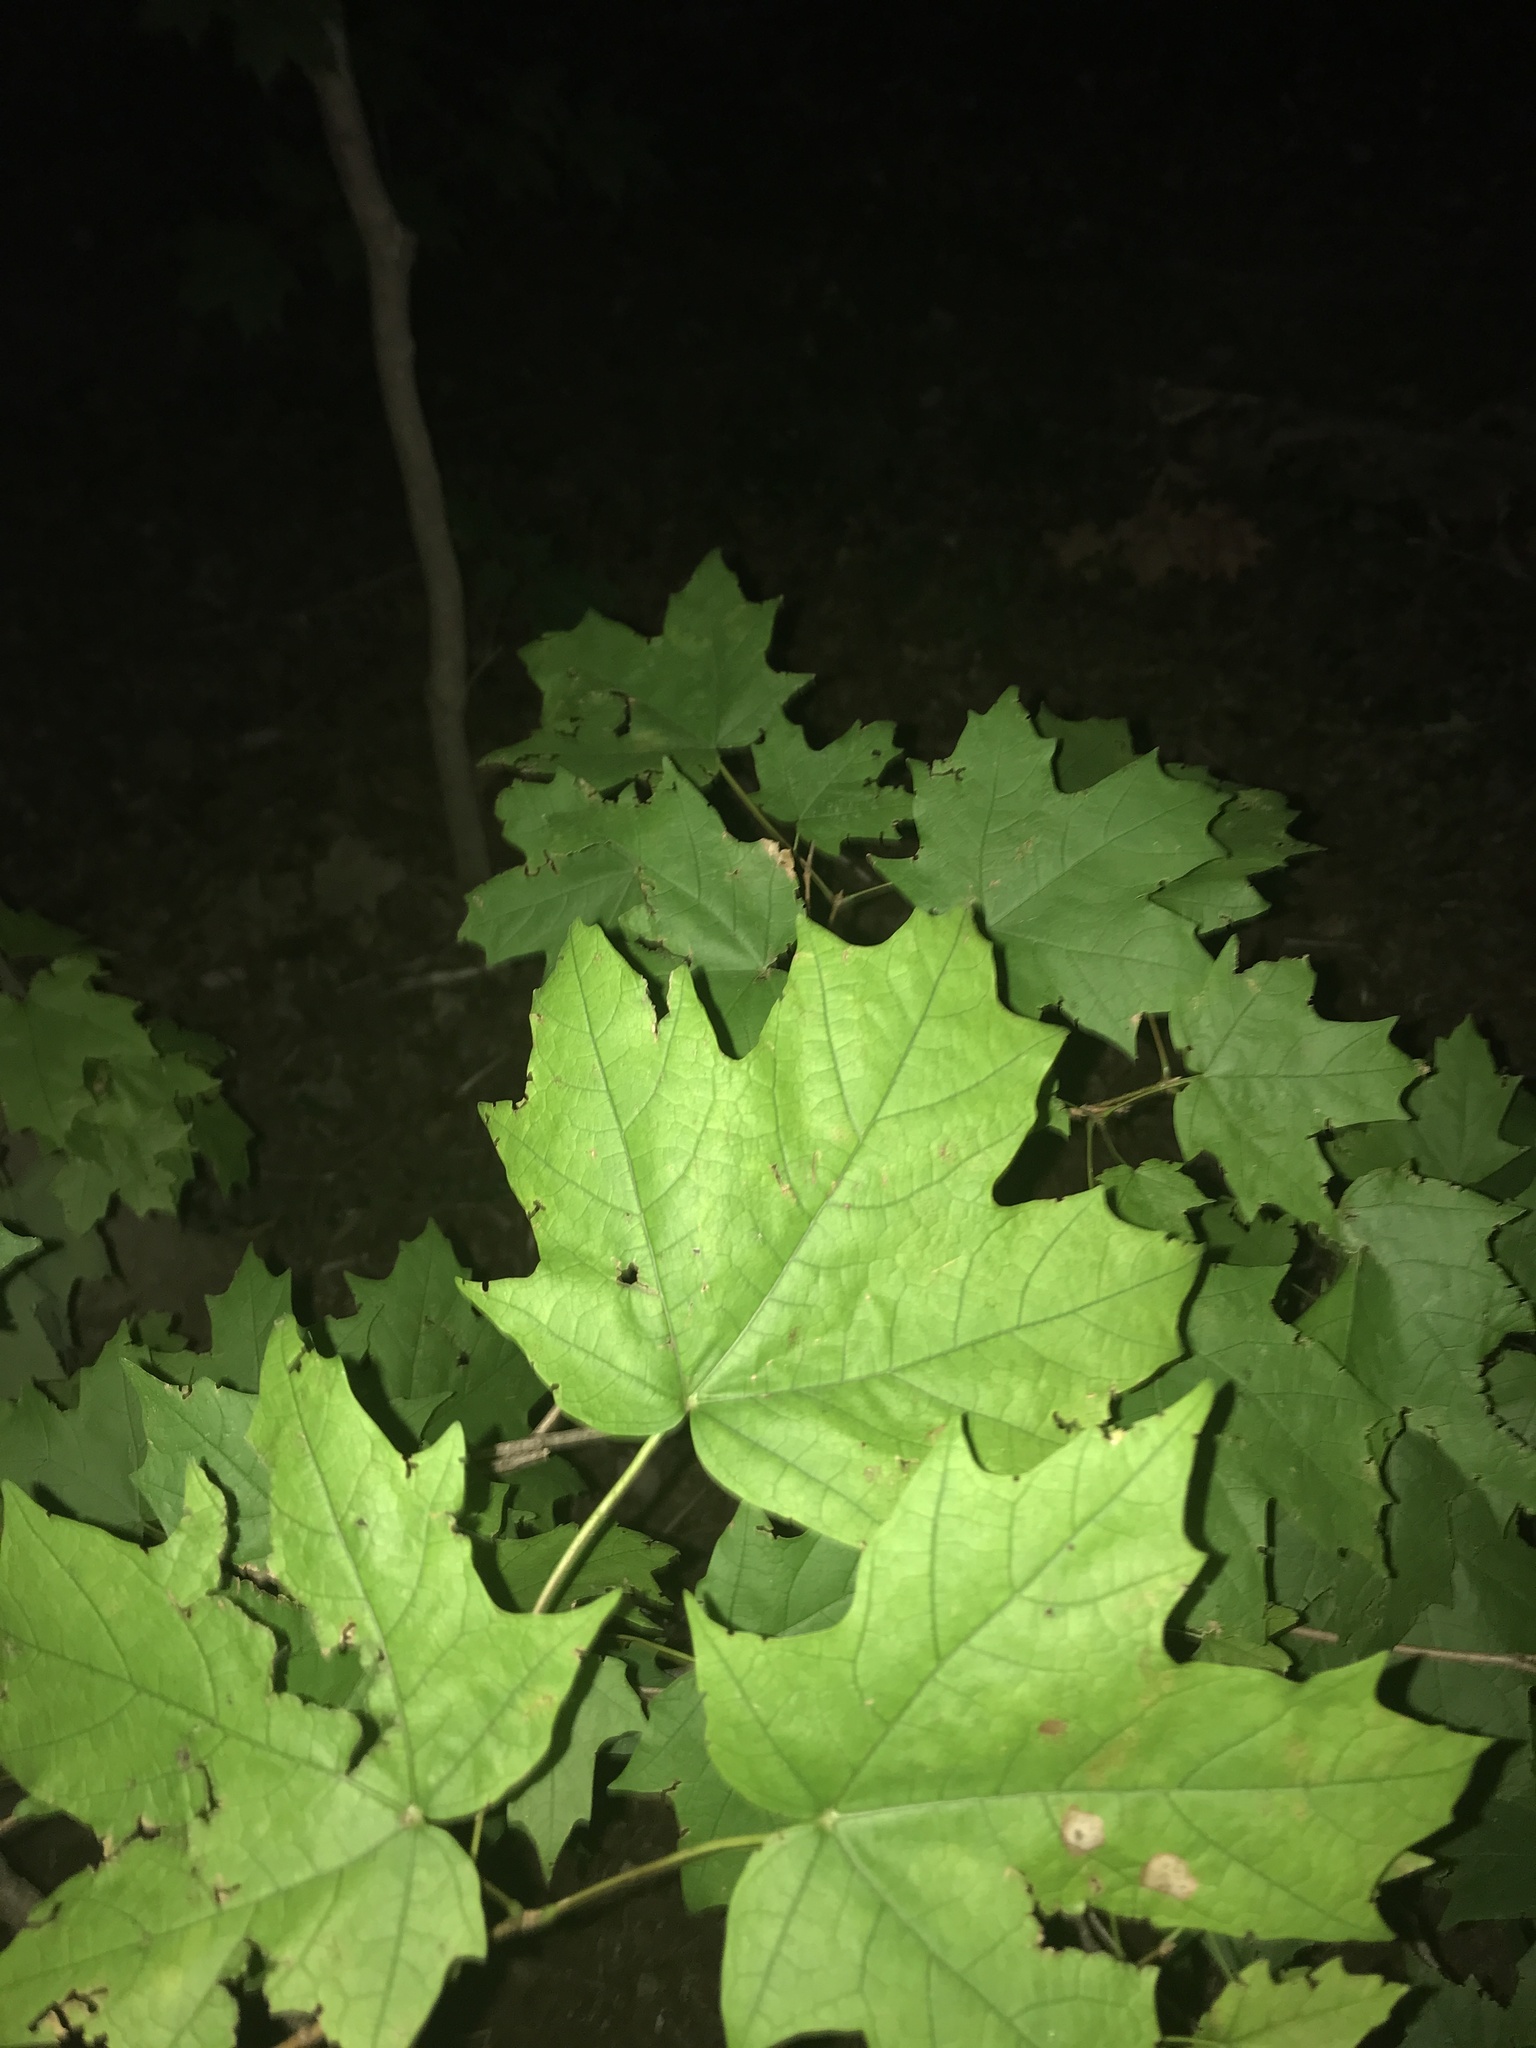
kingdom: Plantae
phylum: Tracheophyta
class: Magnoliopsida
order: Sapindales
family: Sapindaceae
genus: Acer
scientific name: Acer saccharum
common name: Sugar maple
